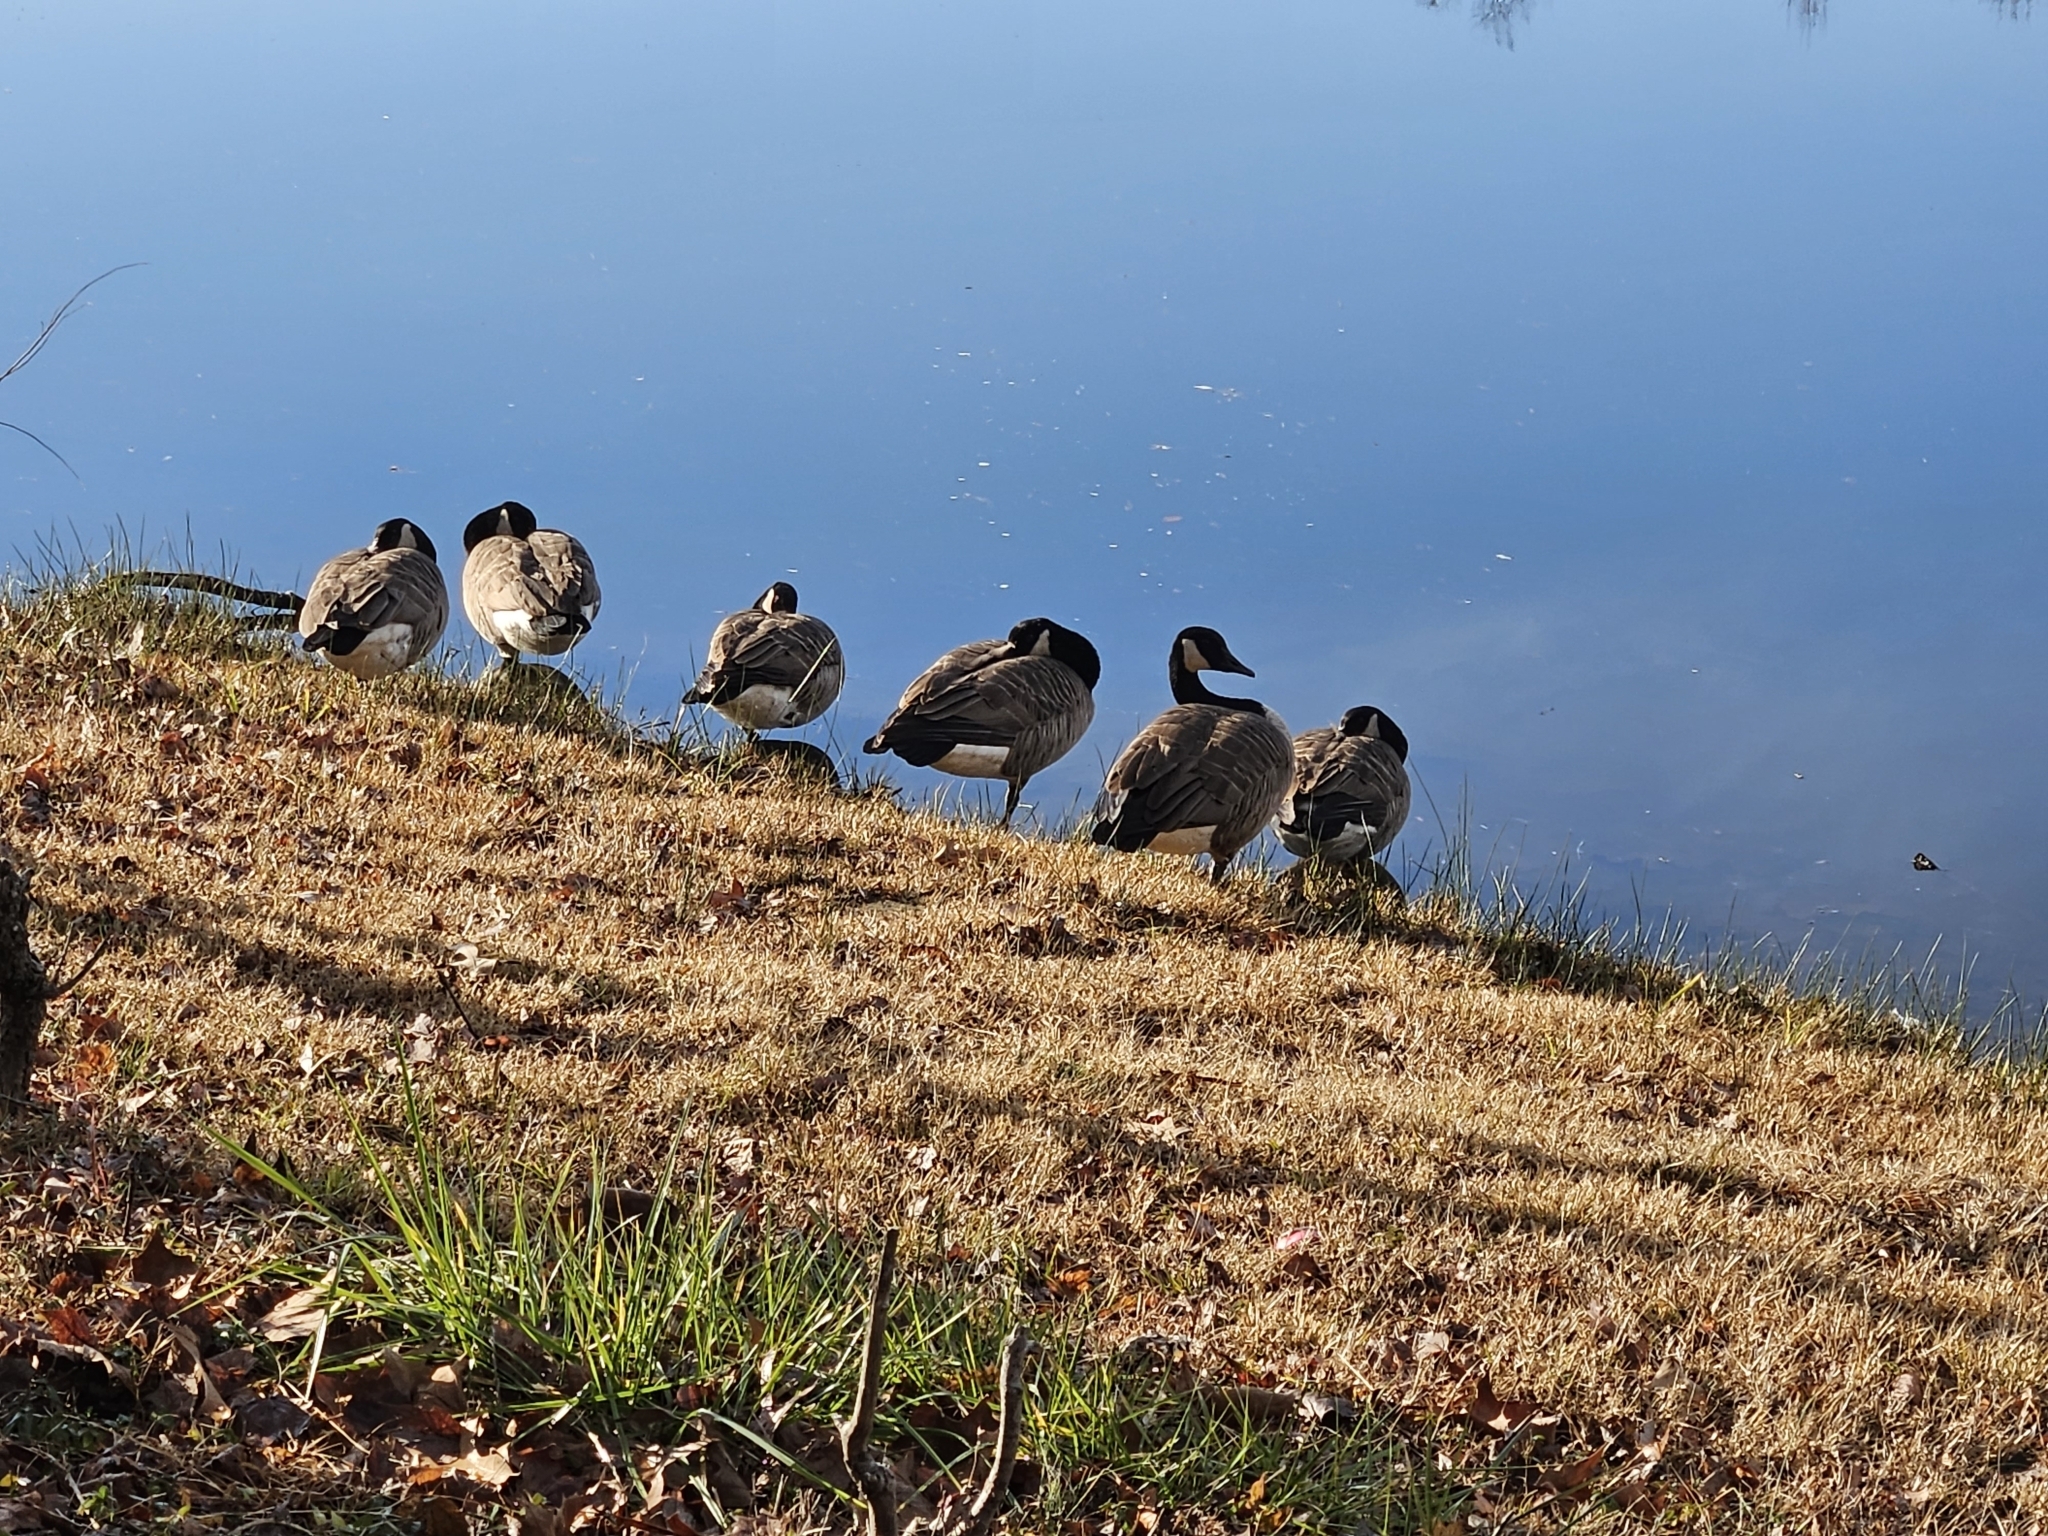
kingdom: Animalia
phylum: Chordata
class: Aves
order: Anseriformes
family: Anatidae
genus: Branta
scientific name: Branta canadensis
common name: Canada goose
